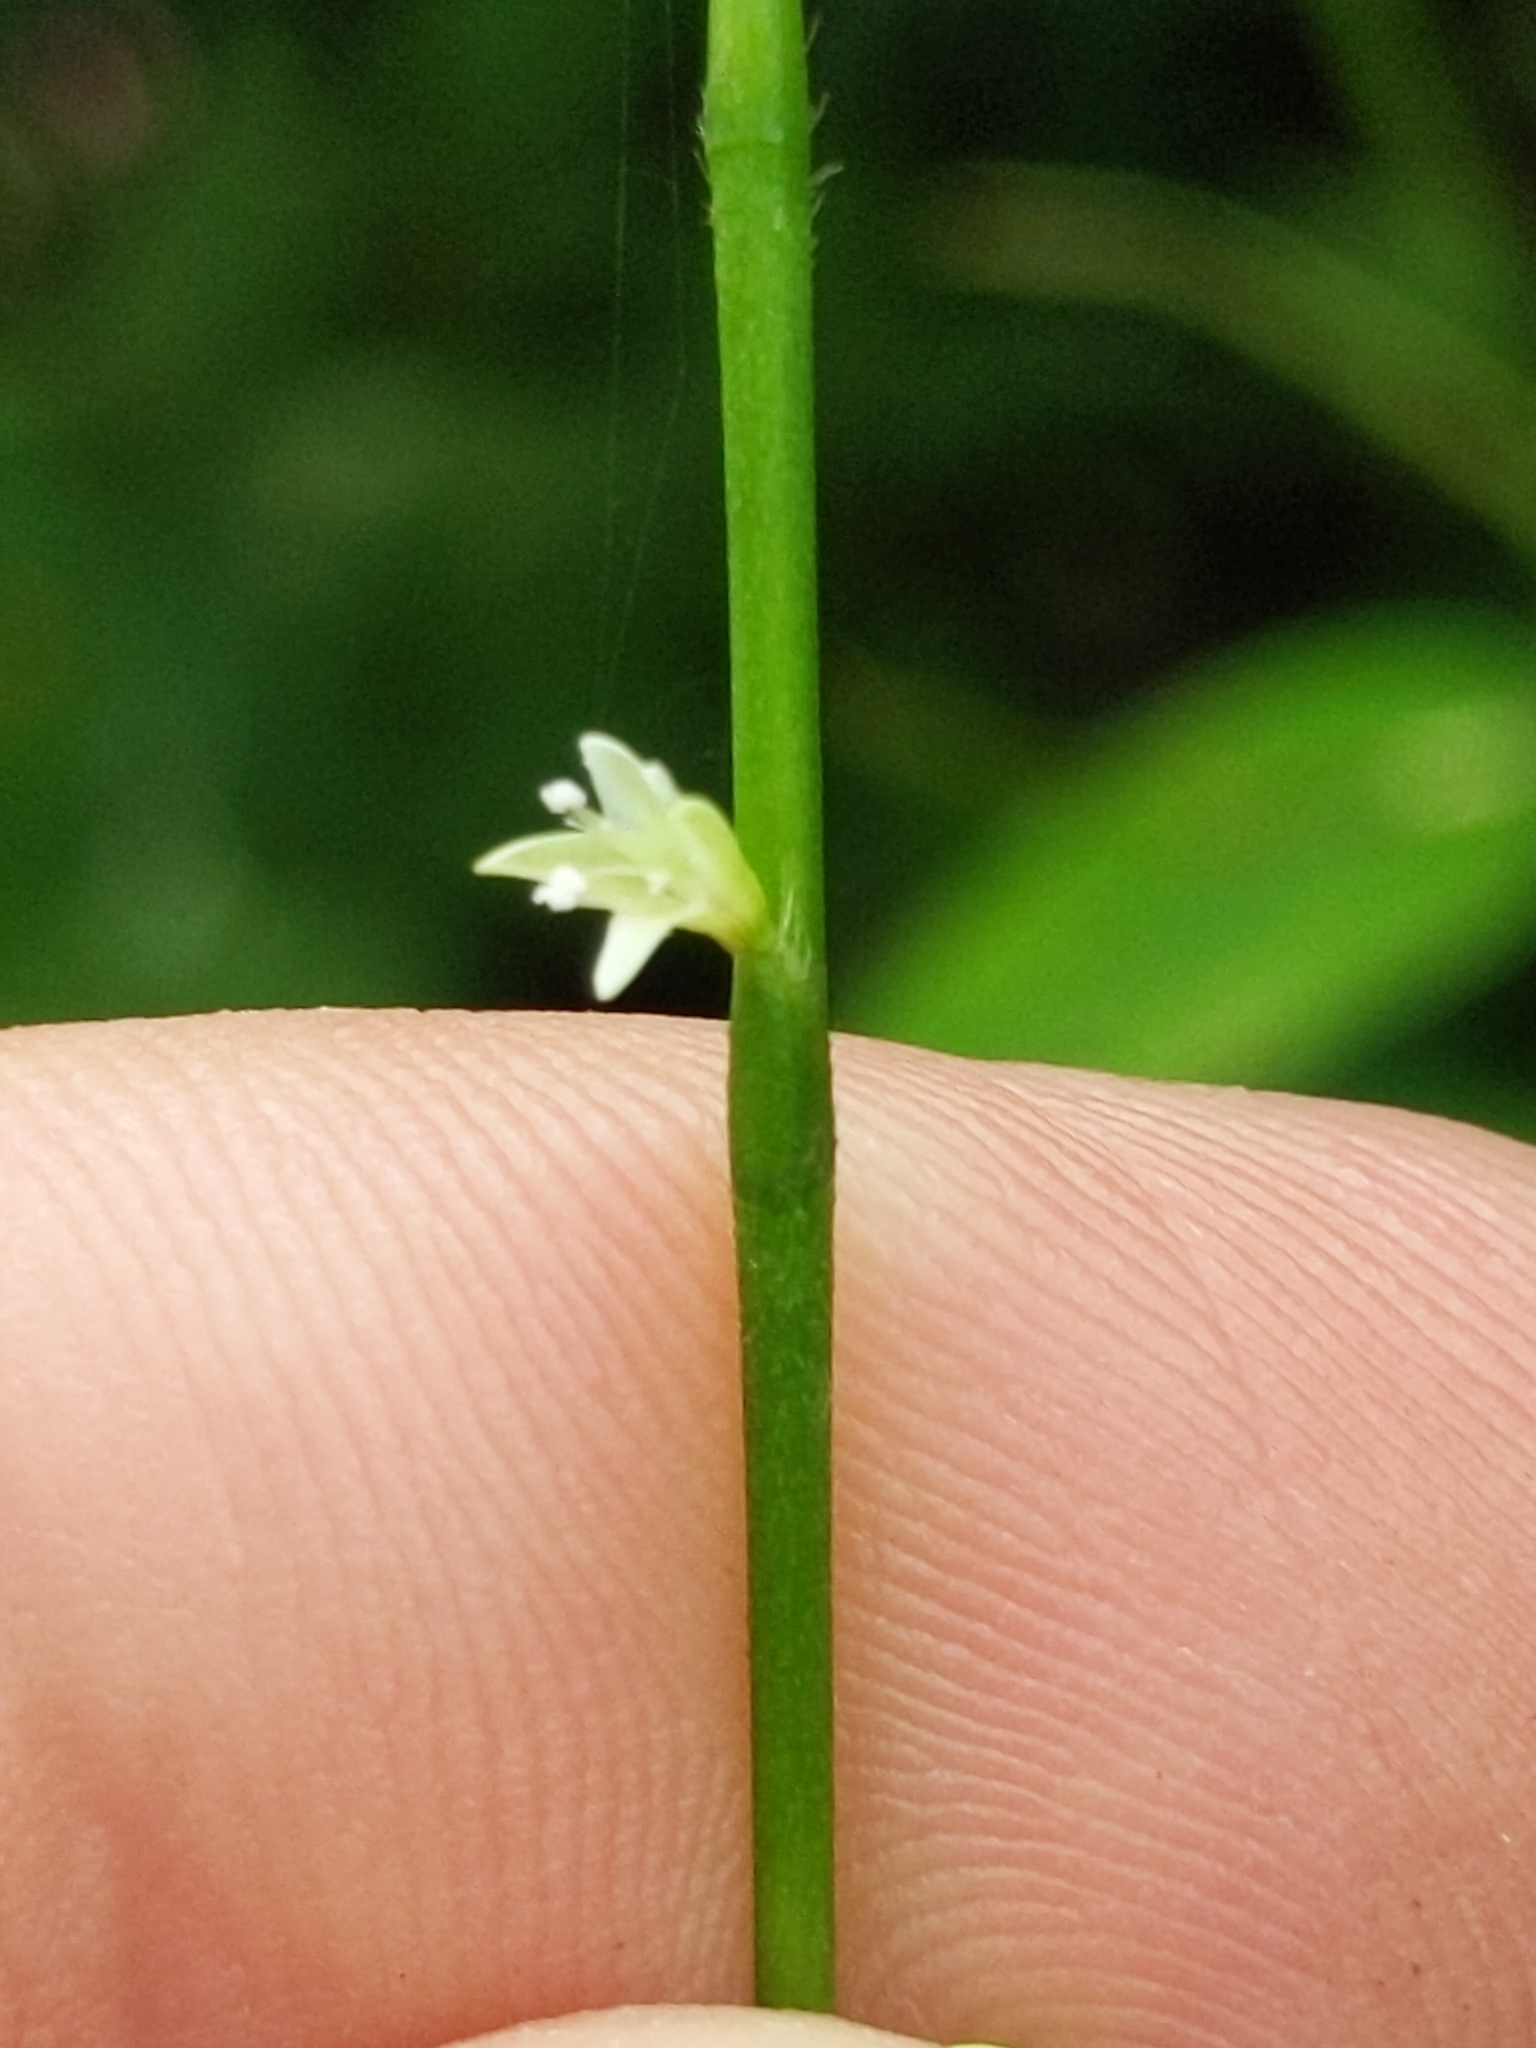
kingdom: Plantae
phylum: Tracheophyta
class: Magnoliopsida
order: Caryophyllales
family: Polygonaceae
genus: Persicaria
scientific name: Persicaria virginiana
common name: Jumpseed
